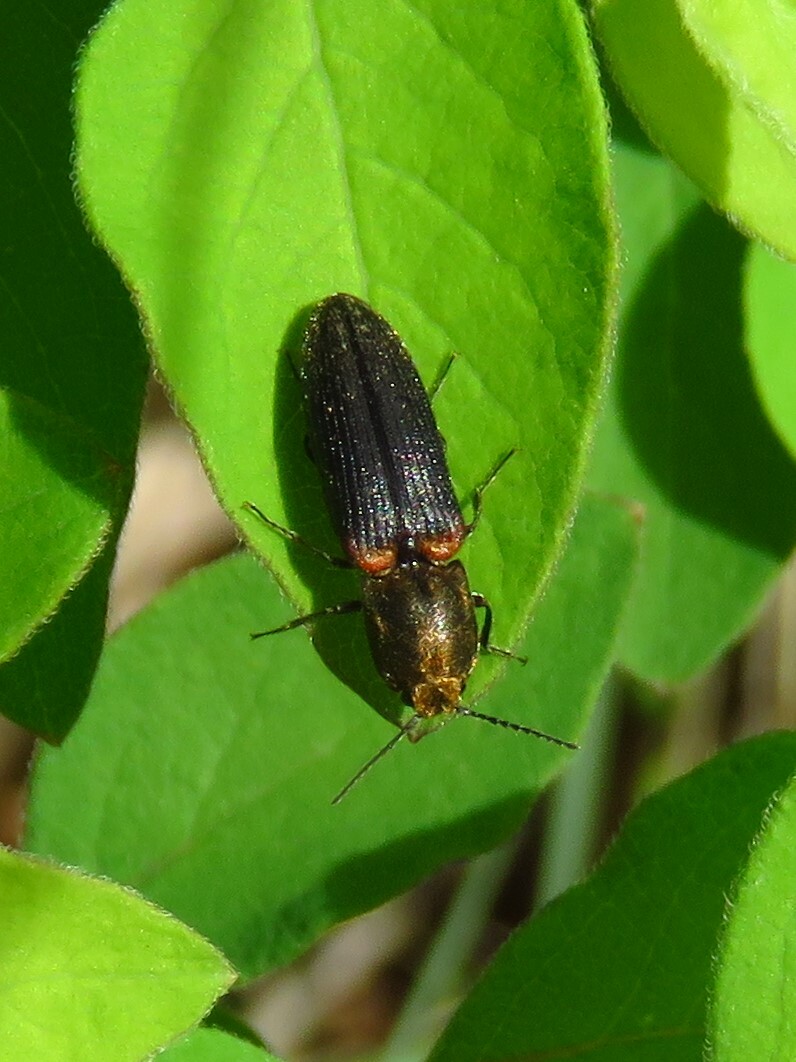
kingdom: Animalia
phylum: Arthropoda
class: Insecta
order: Coleoptera
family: Elateridae
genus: Limonius
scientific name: Limonius auripilis
